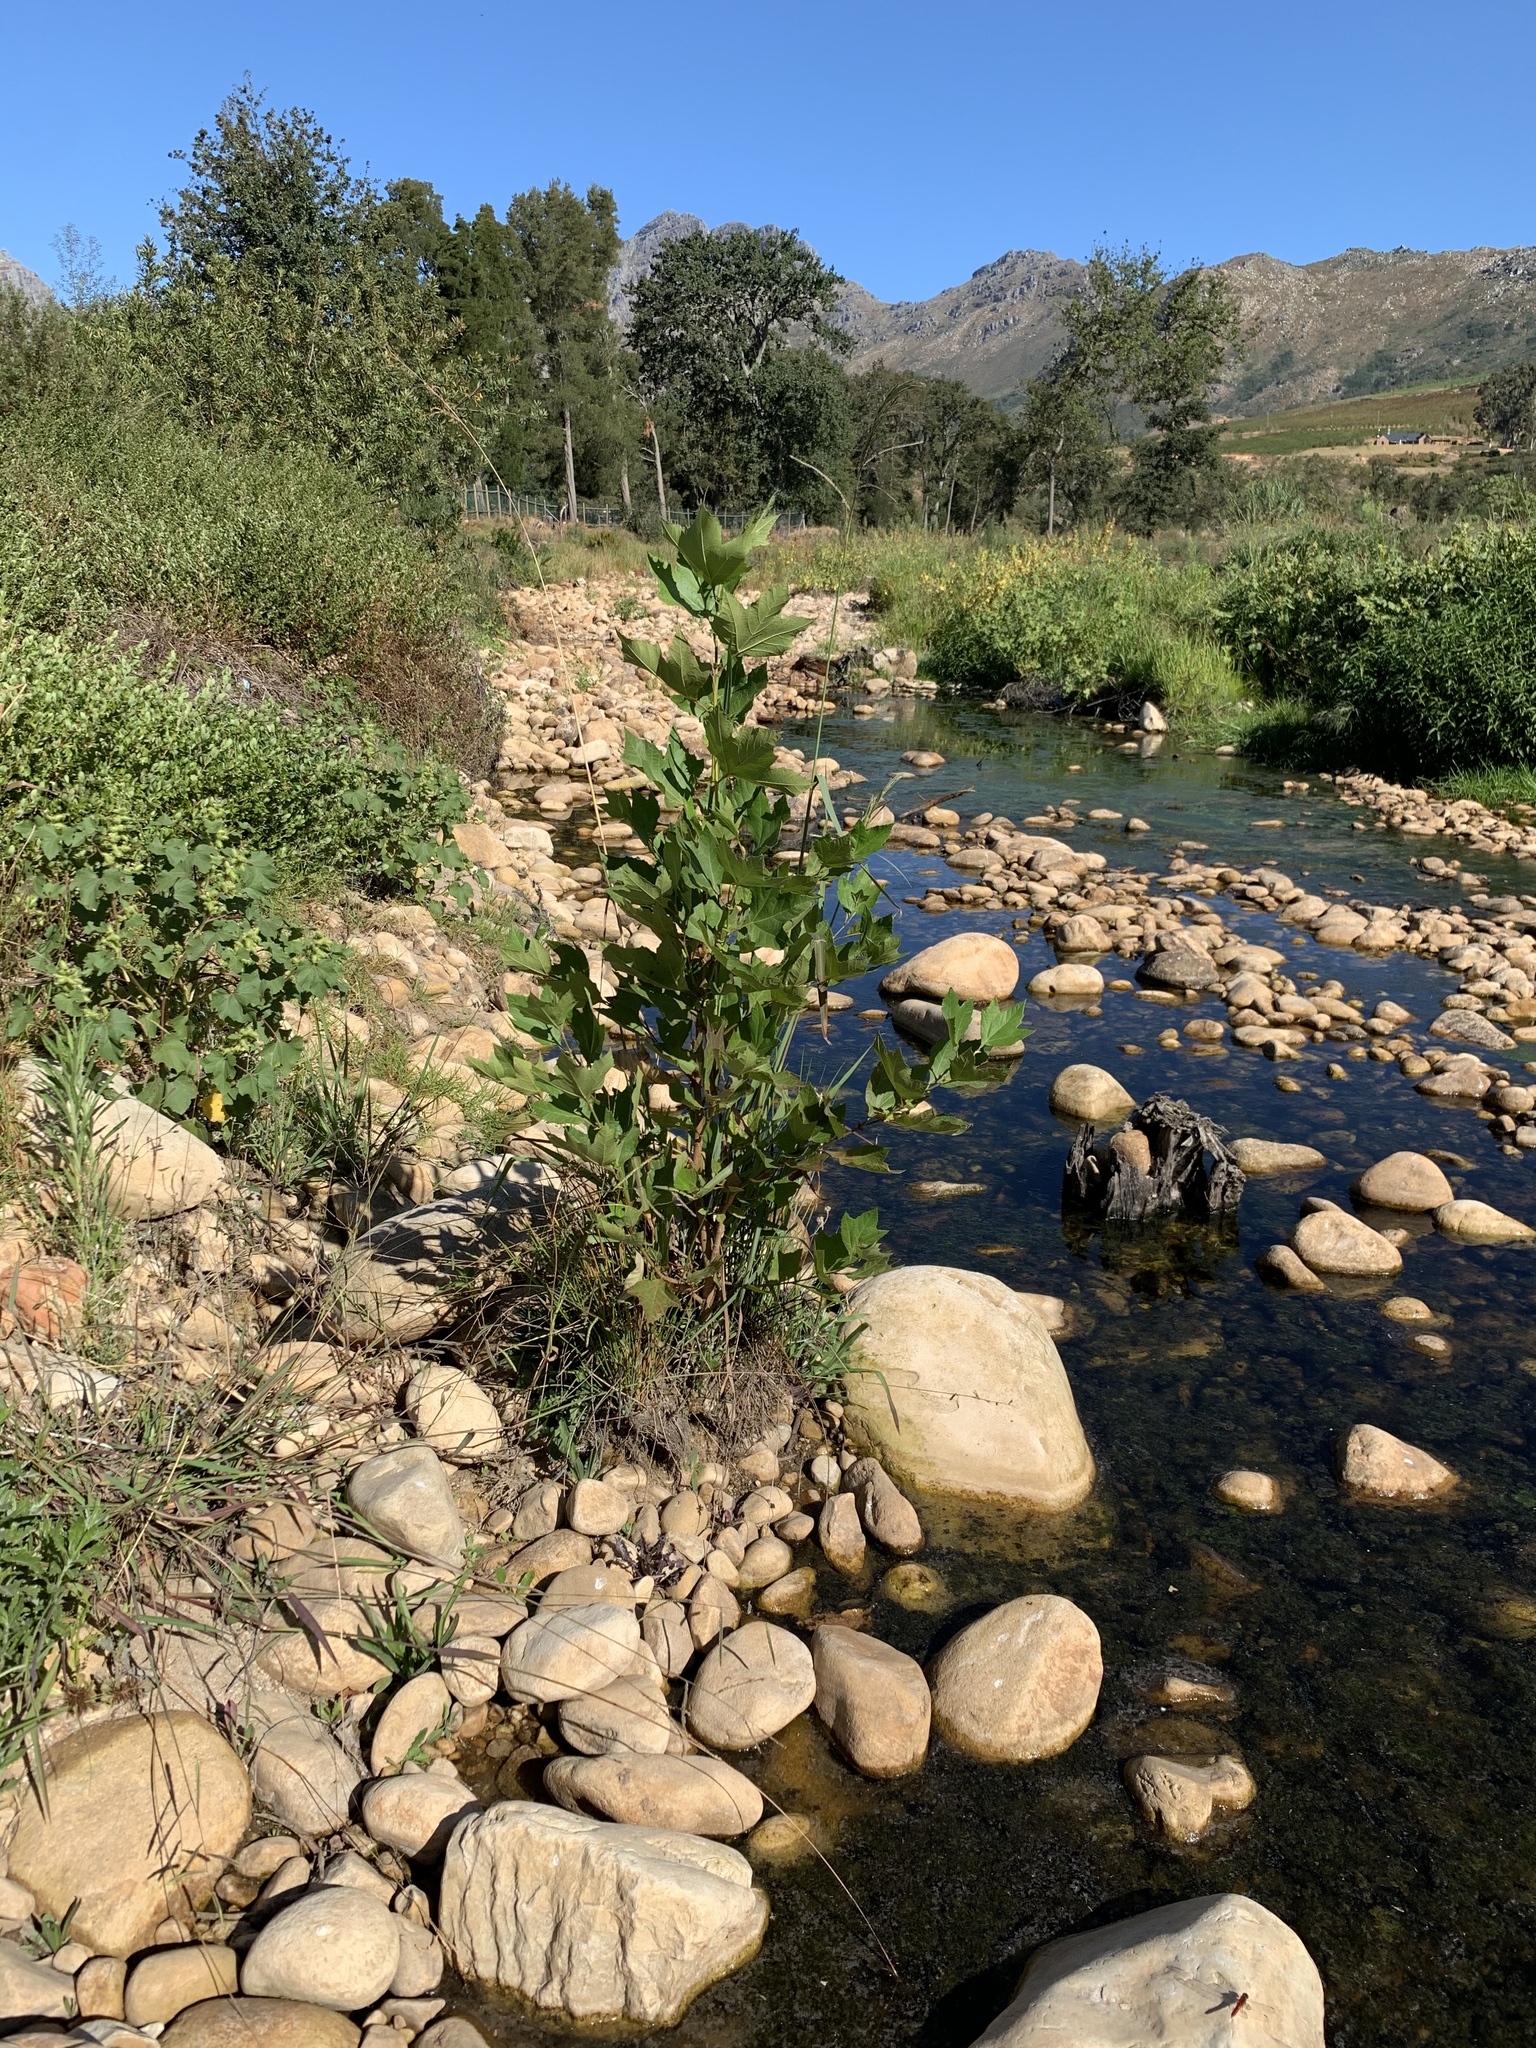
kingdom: Plantae
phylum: Tracheophyta
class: Magnoliopsida
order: Proteales
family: Platanaceae
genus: Platanus
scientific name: Platanus hispanica
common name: London plane
